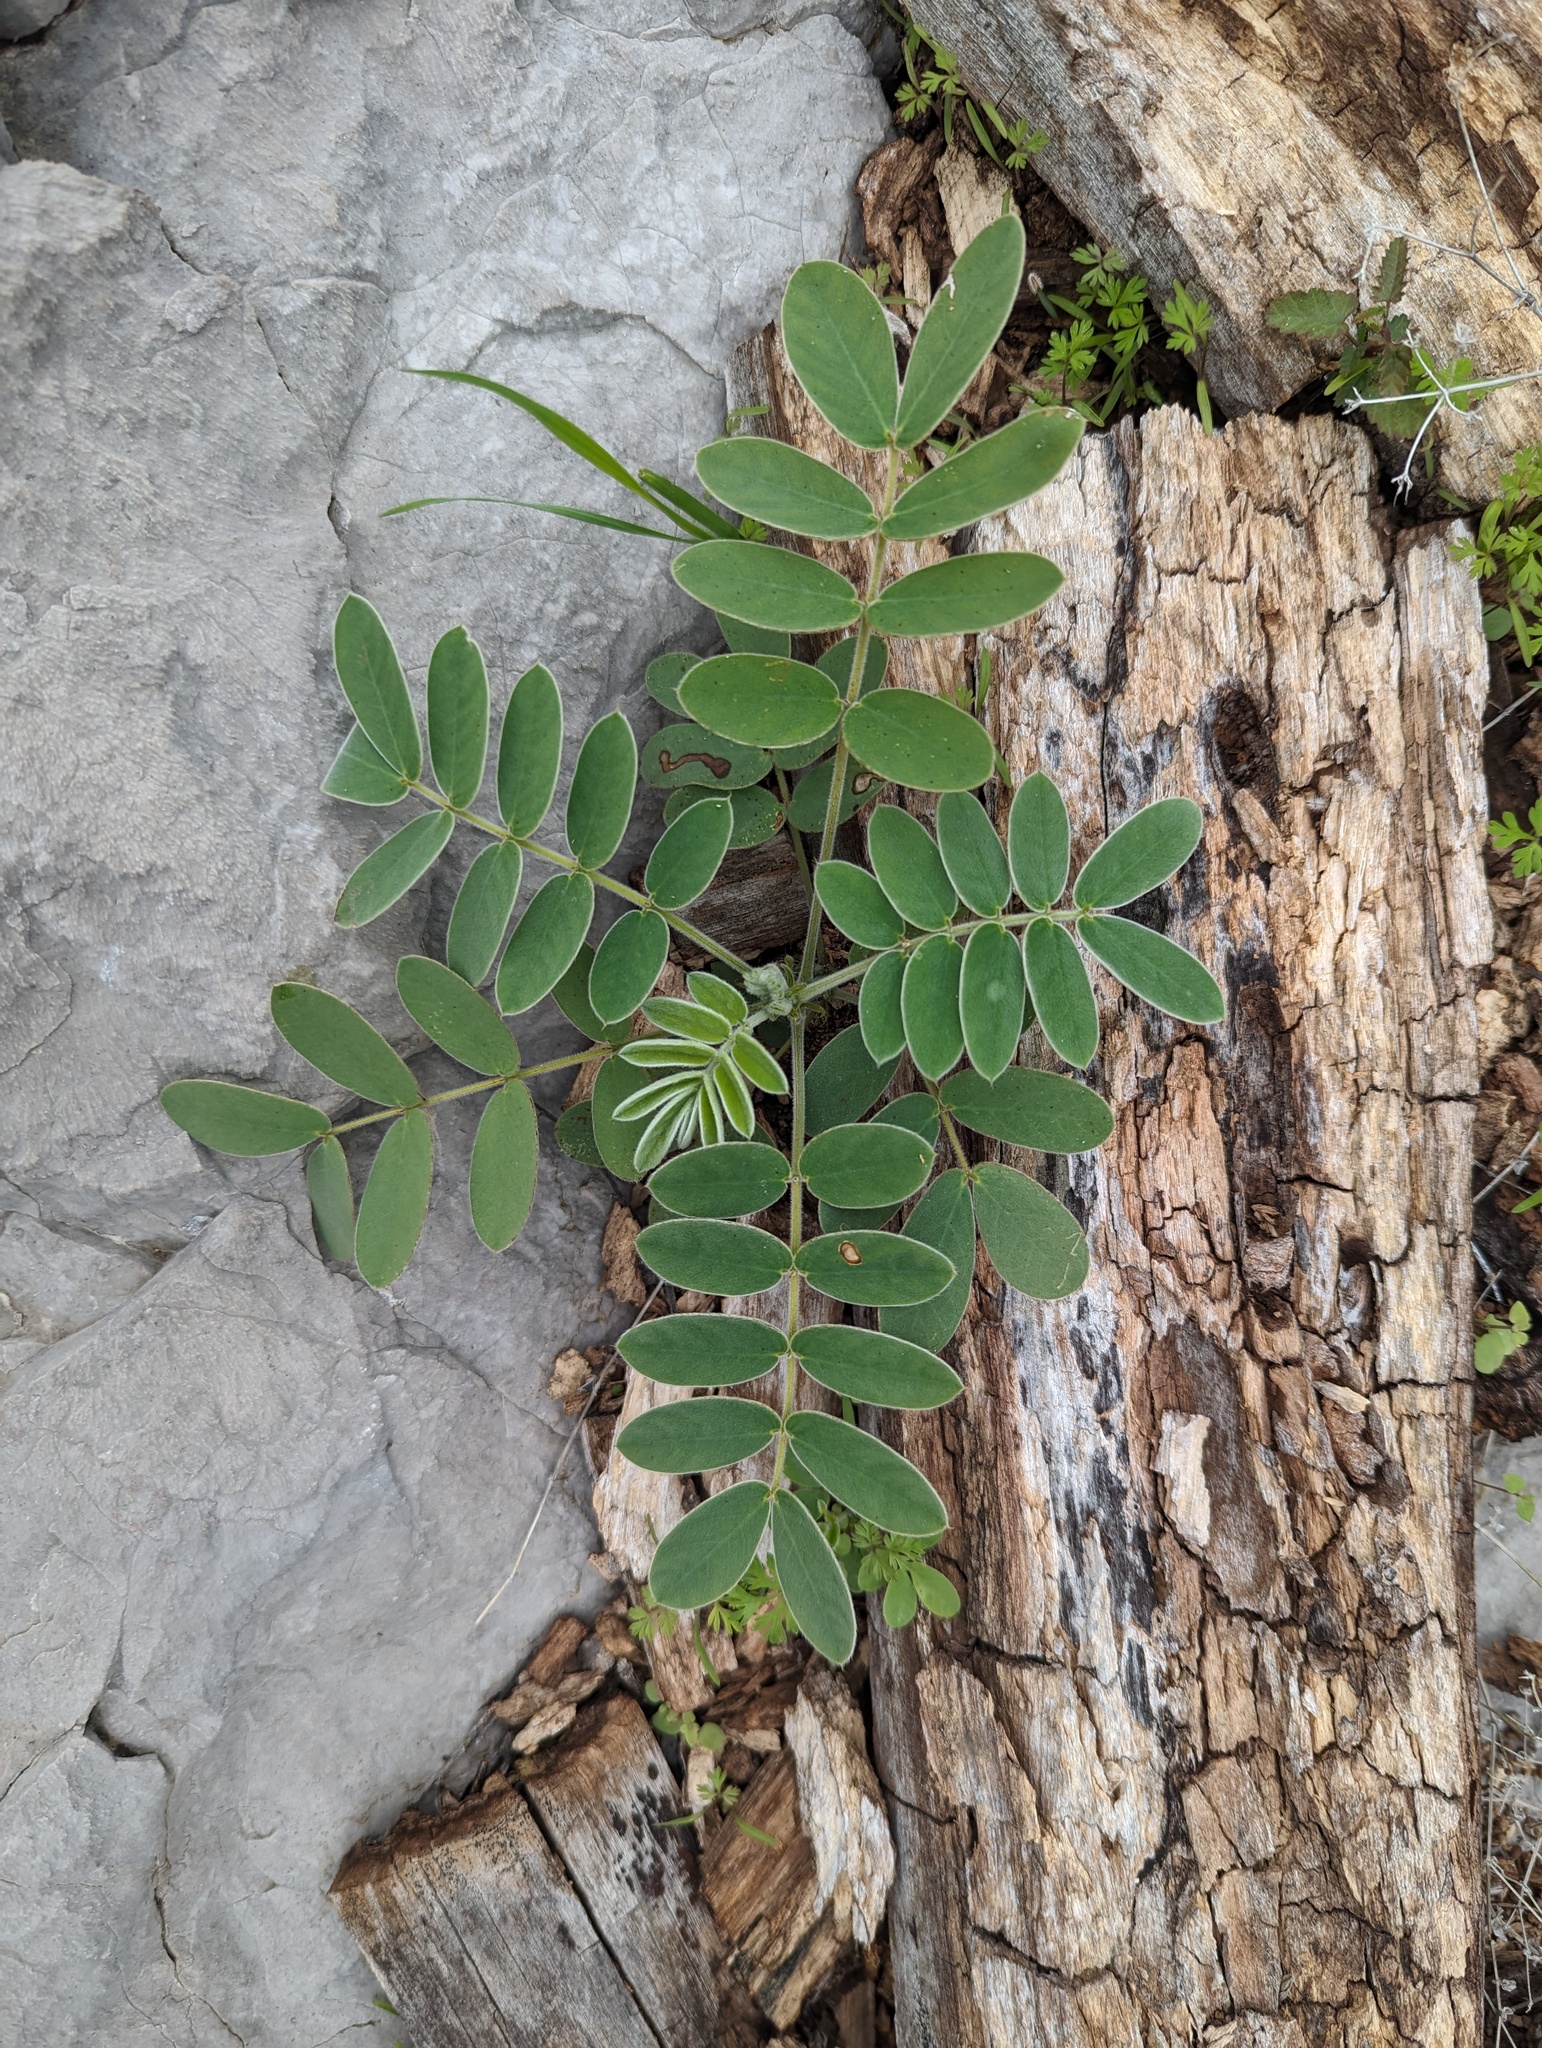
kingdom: Plantae
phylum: Tracheophyta
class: Magnoliopsida
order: Fabales
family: Fabaceae
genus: Senna
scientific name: Senna lindheimeriana
